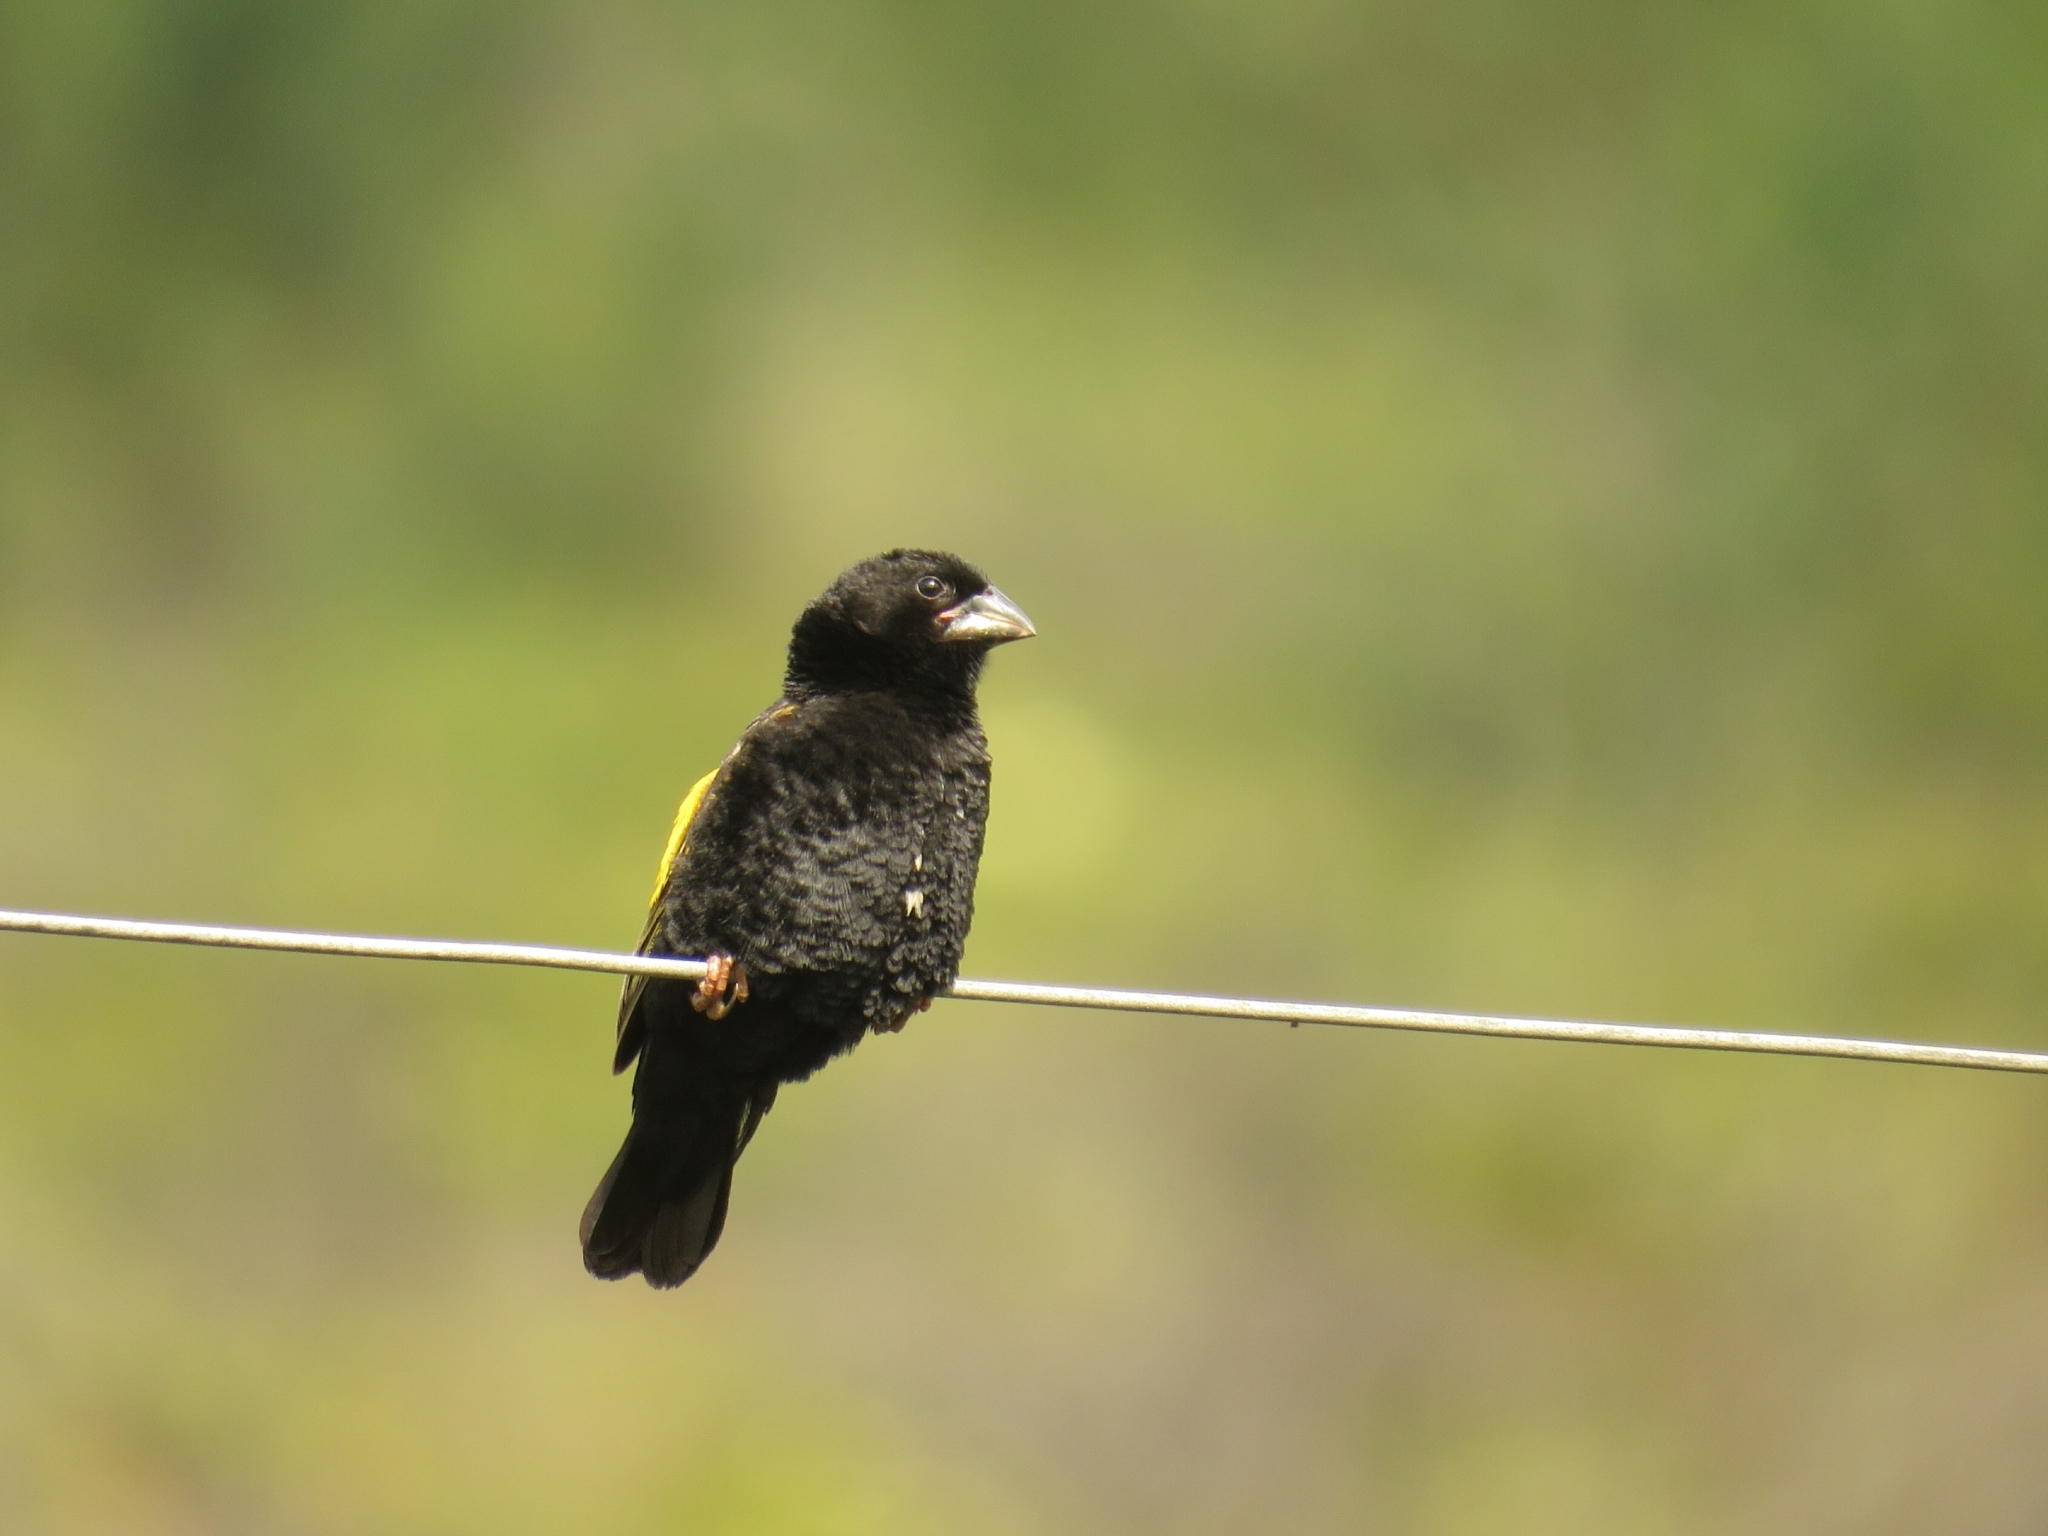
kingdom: Animalia
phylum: Chordata
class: Aves
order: Passeriformes
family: Ploceidae
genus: Euplectes
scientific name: Euplectes capensis
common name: Yellow bishop
